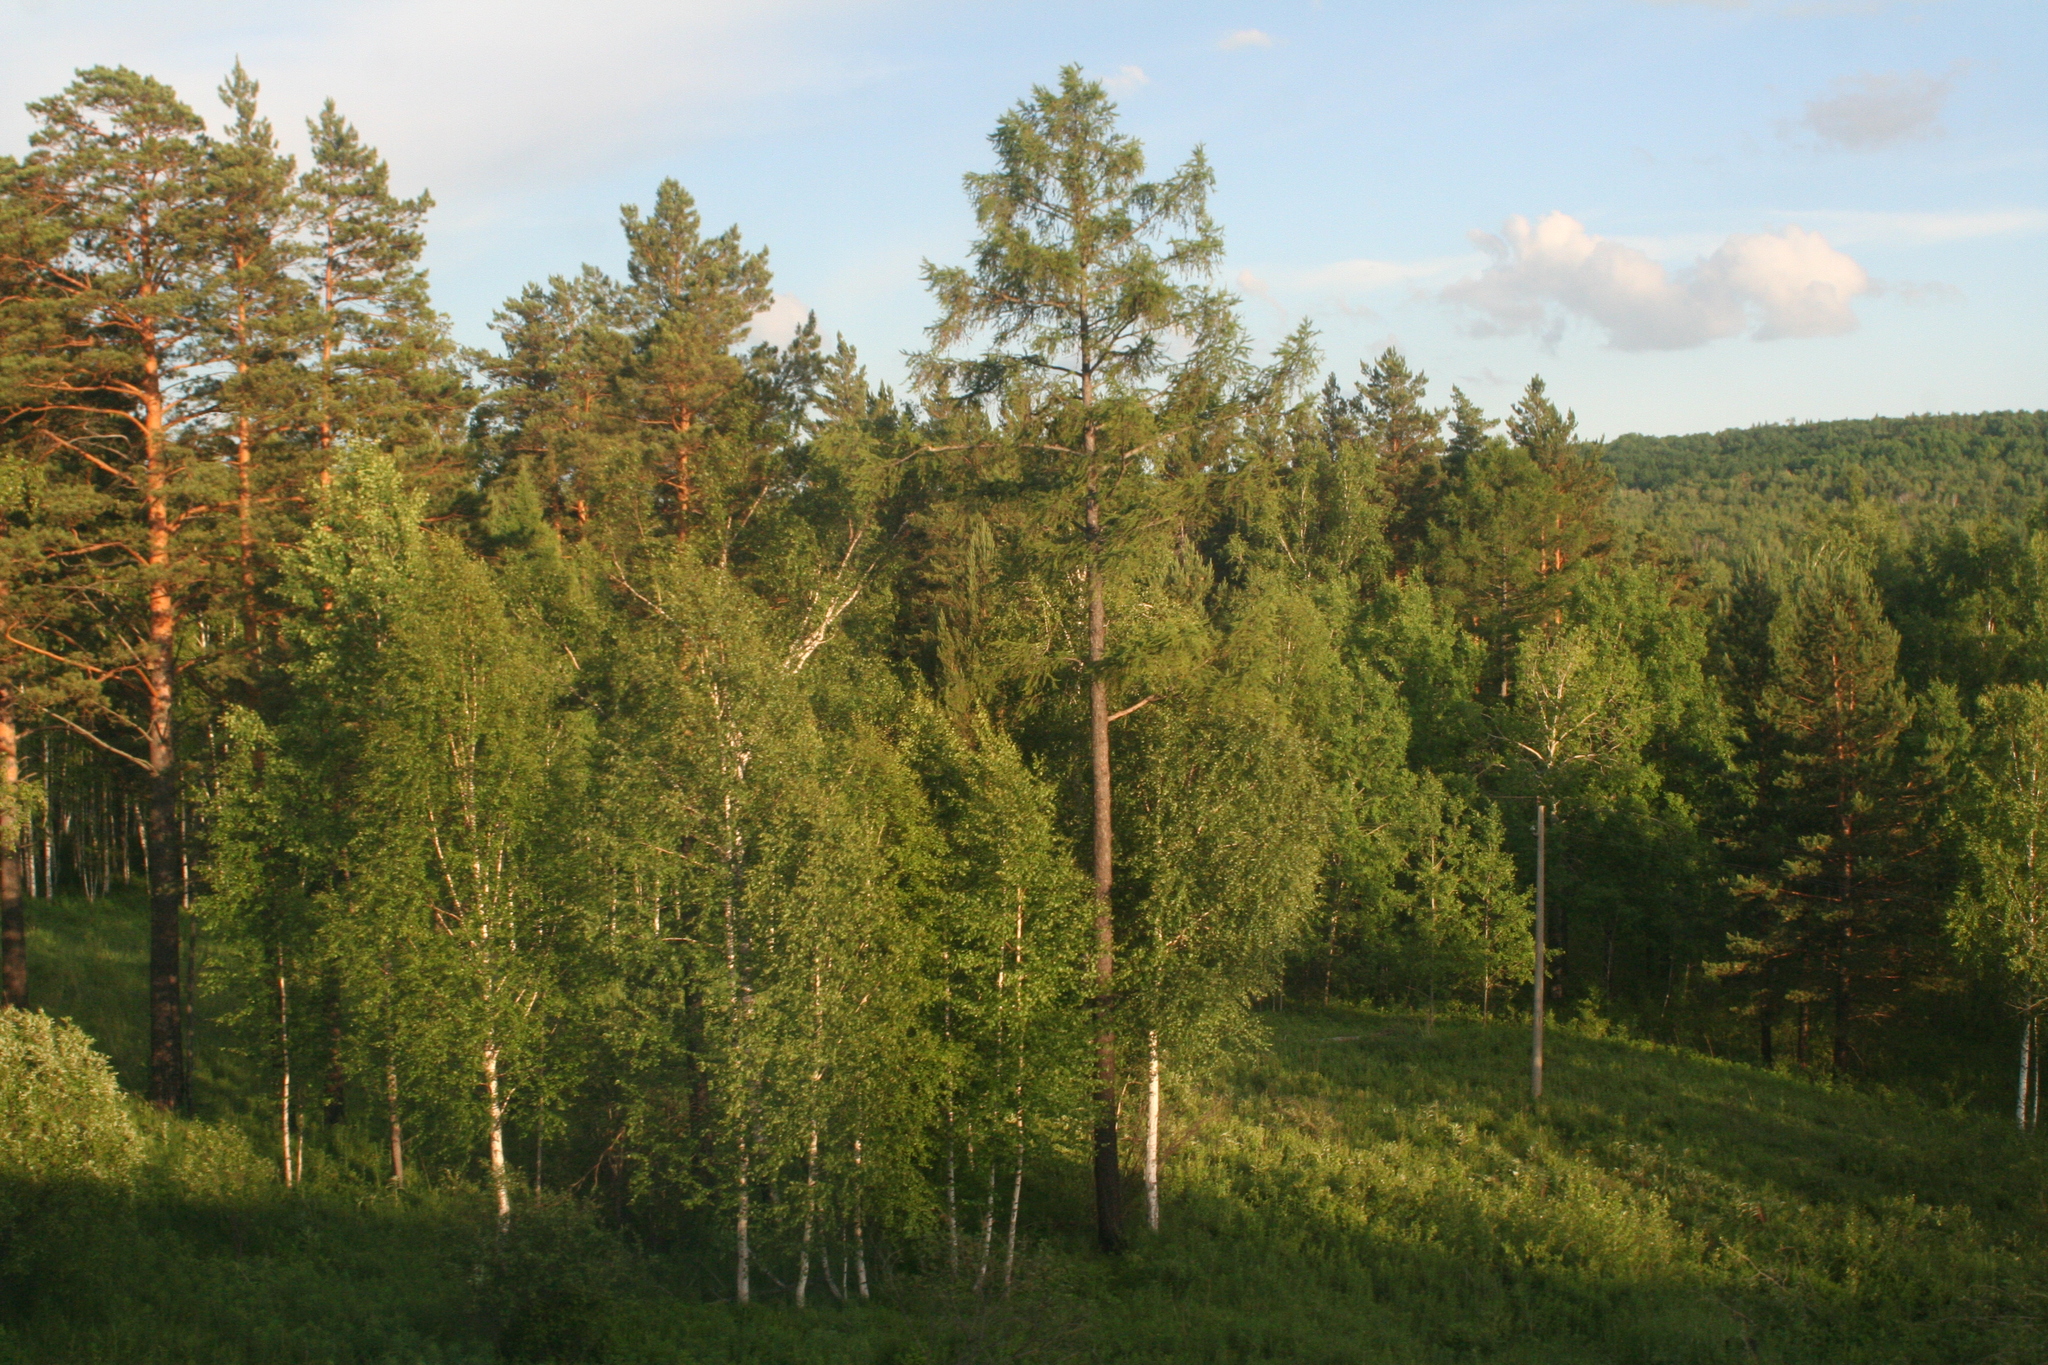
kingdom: Plantae
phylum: Tracheophyta
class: Pinopsida
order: Pinales
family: Pinaceae
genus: Pinus
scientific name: Pinus sylvestris
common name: Scots pine
